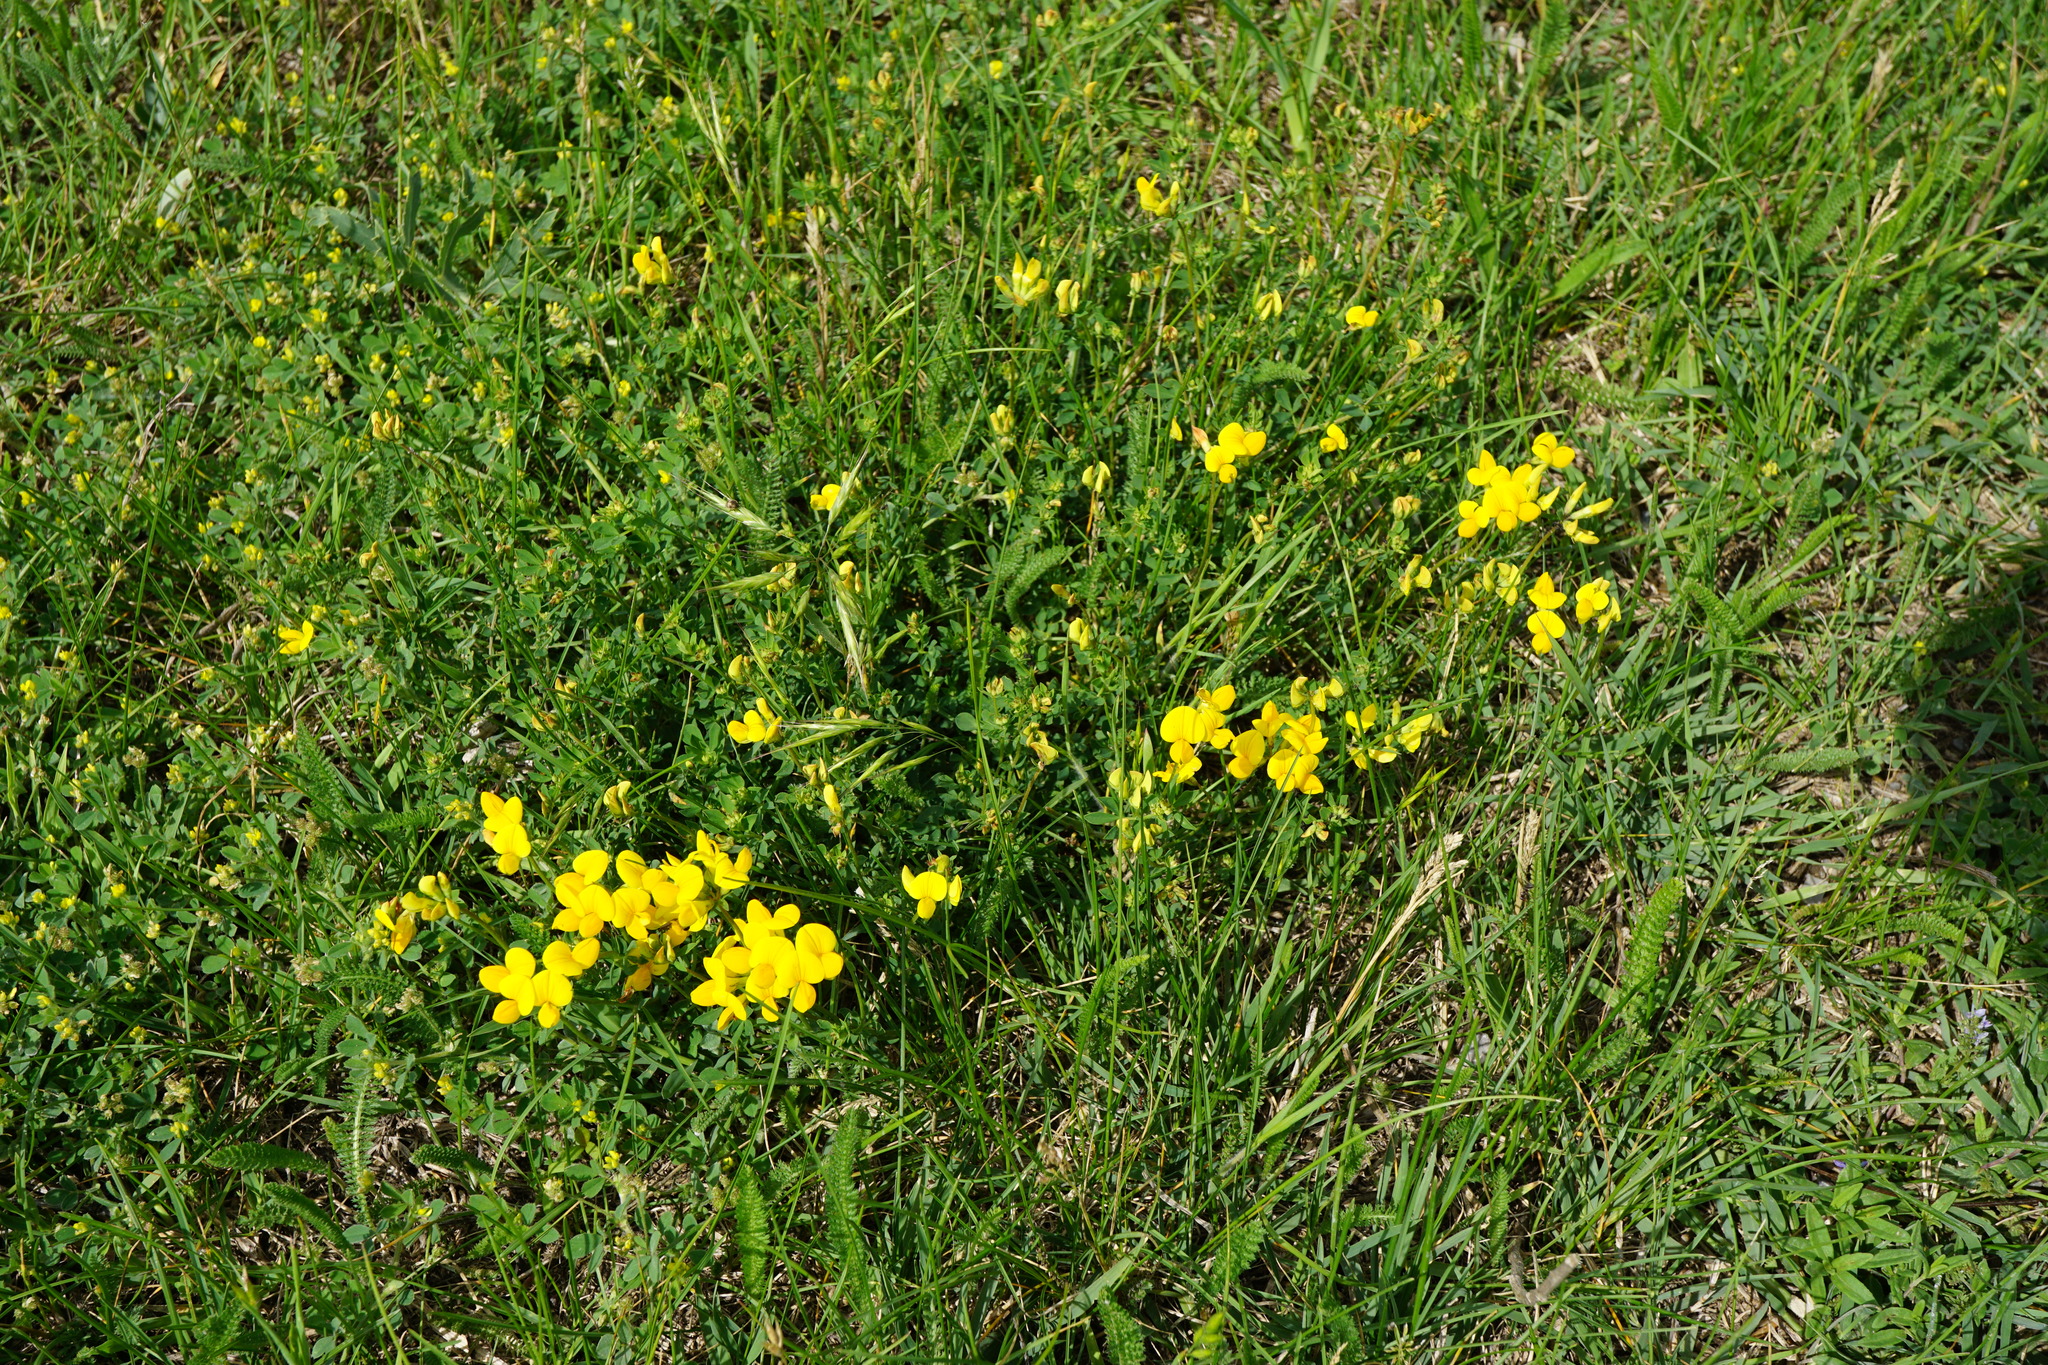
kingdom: Plantae
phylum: Tracheophyta
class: Magnoliopsida
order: Fabales
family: Fabaceae
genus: Lotus
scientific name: Lotus corniculatus
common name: Common bird's-foot-trefoil
